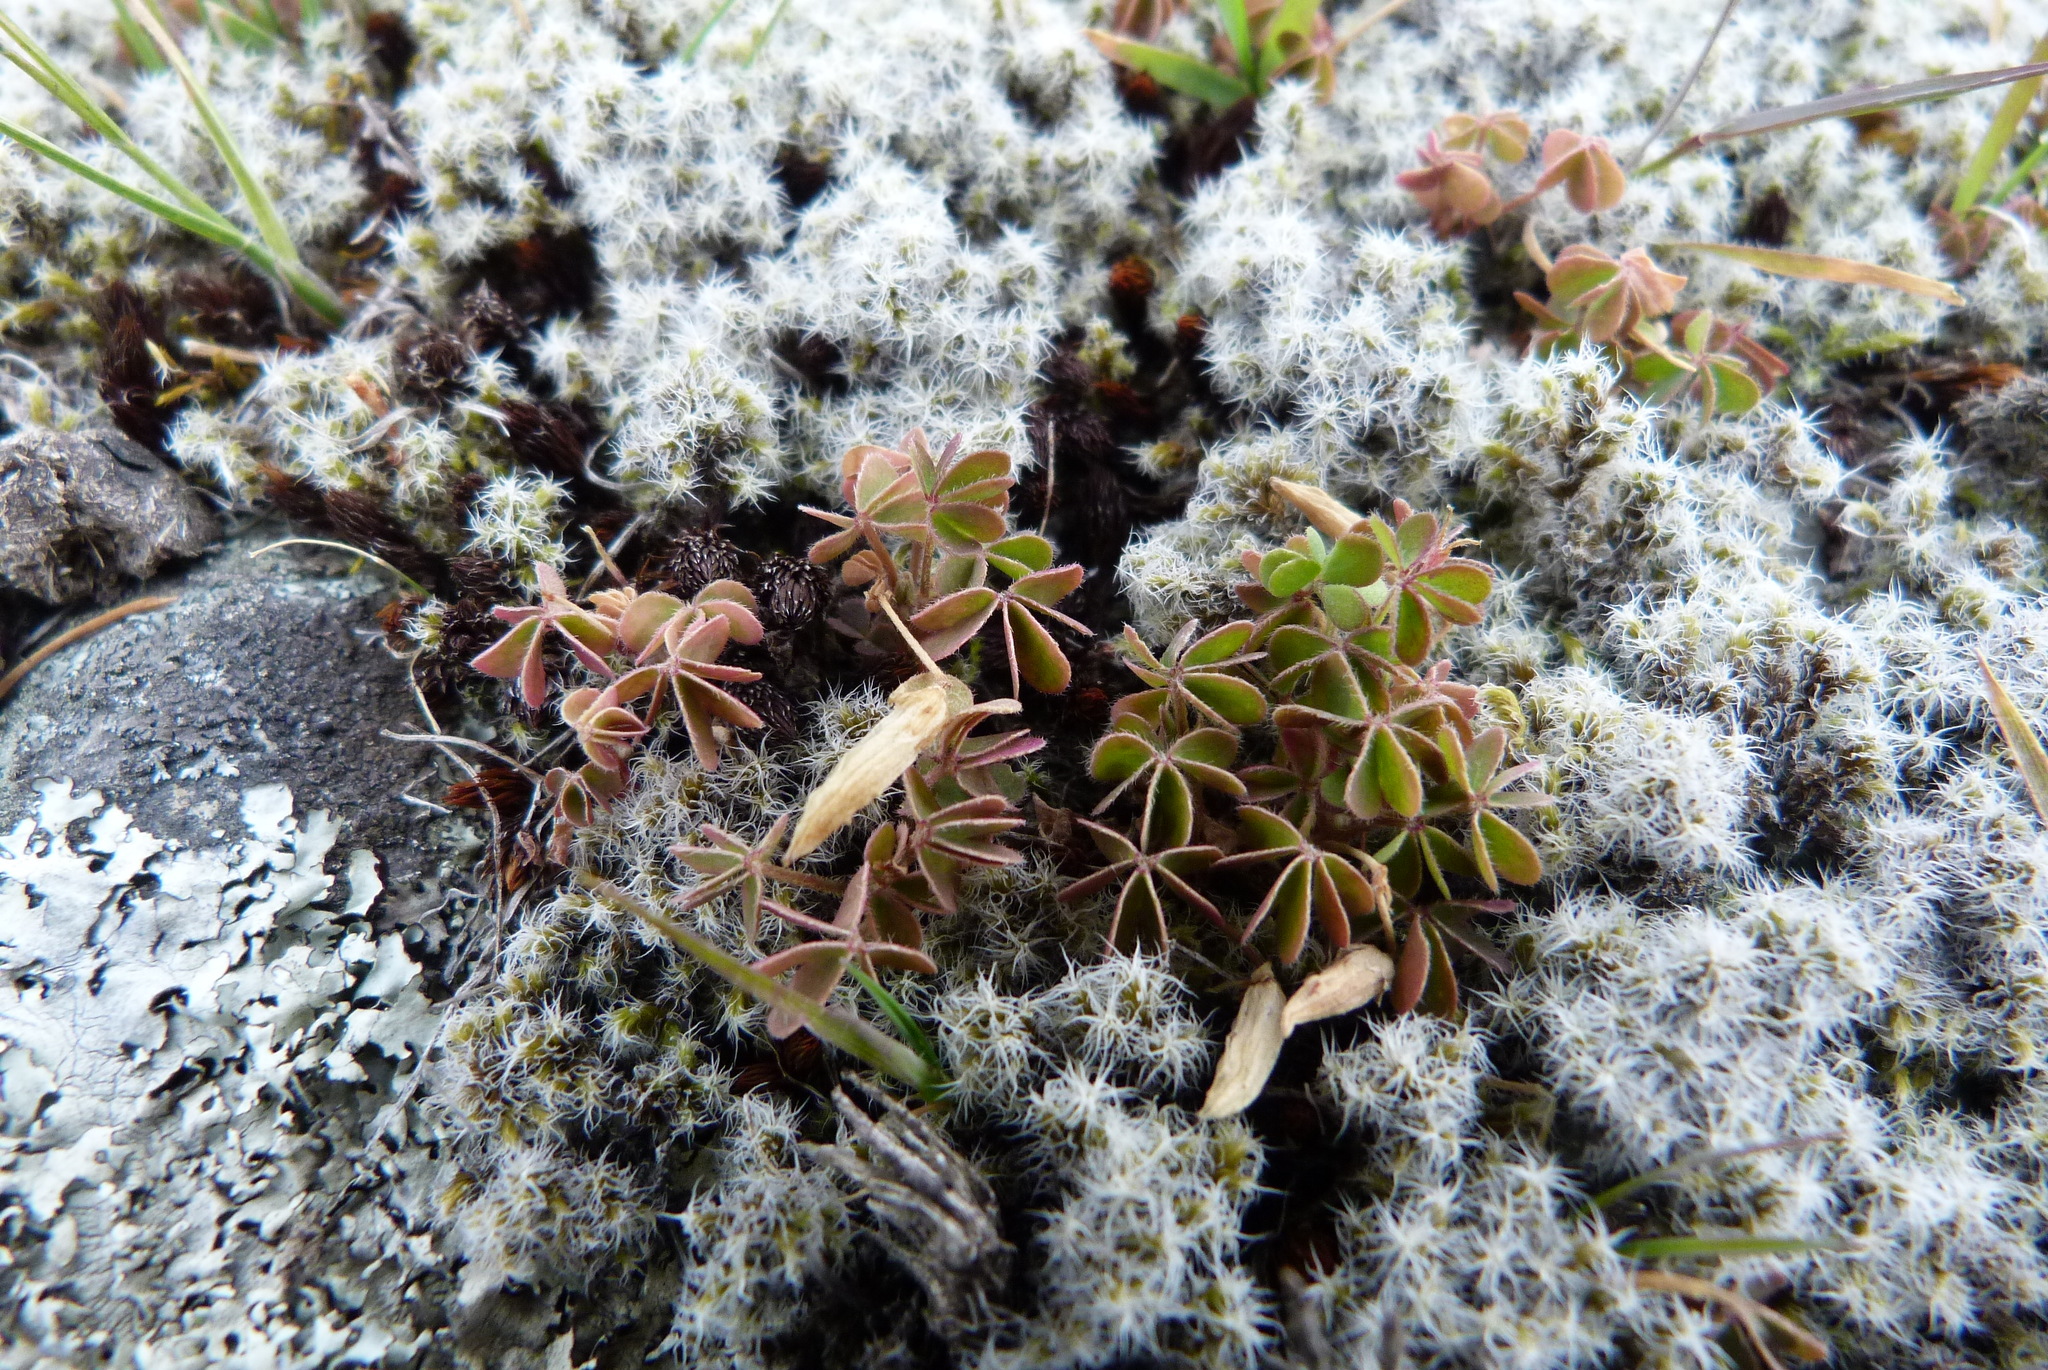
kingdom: Plantae
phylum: Tracheophyta
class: Magnoliopsida
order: Oxalidales
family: Oxalidaceae
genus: Oxalis
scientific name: Oxalis exilis
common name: Least yellow-sorrel
